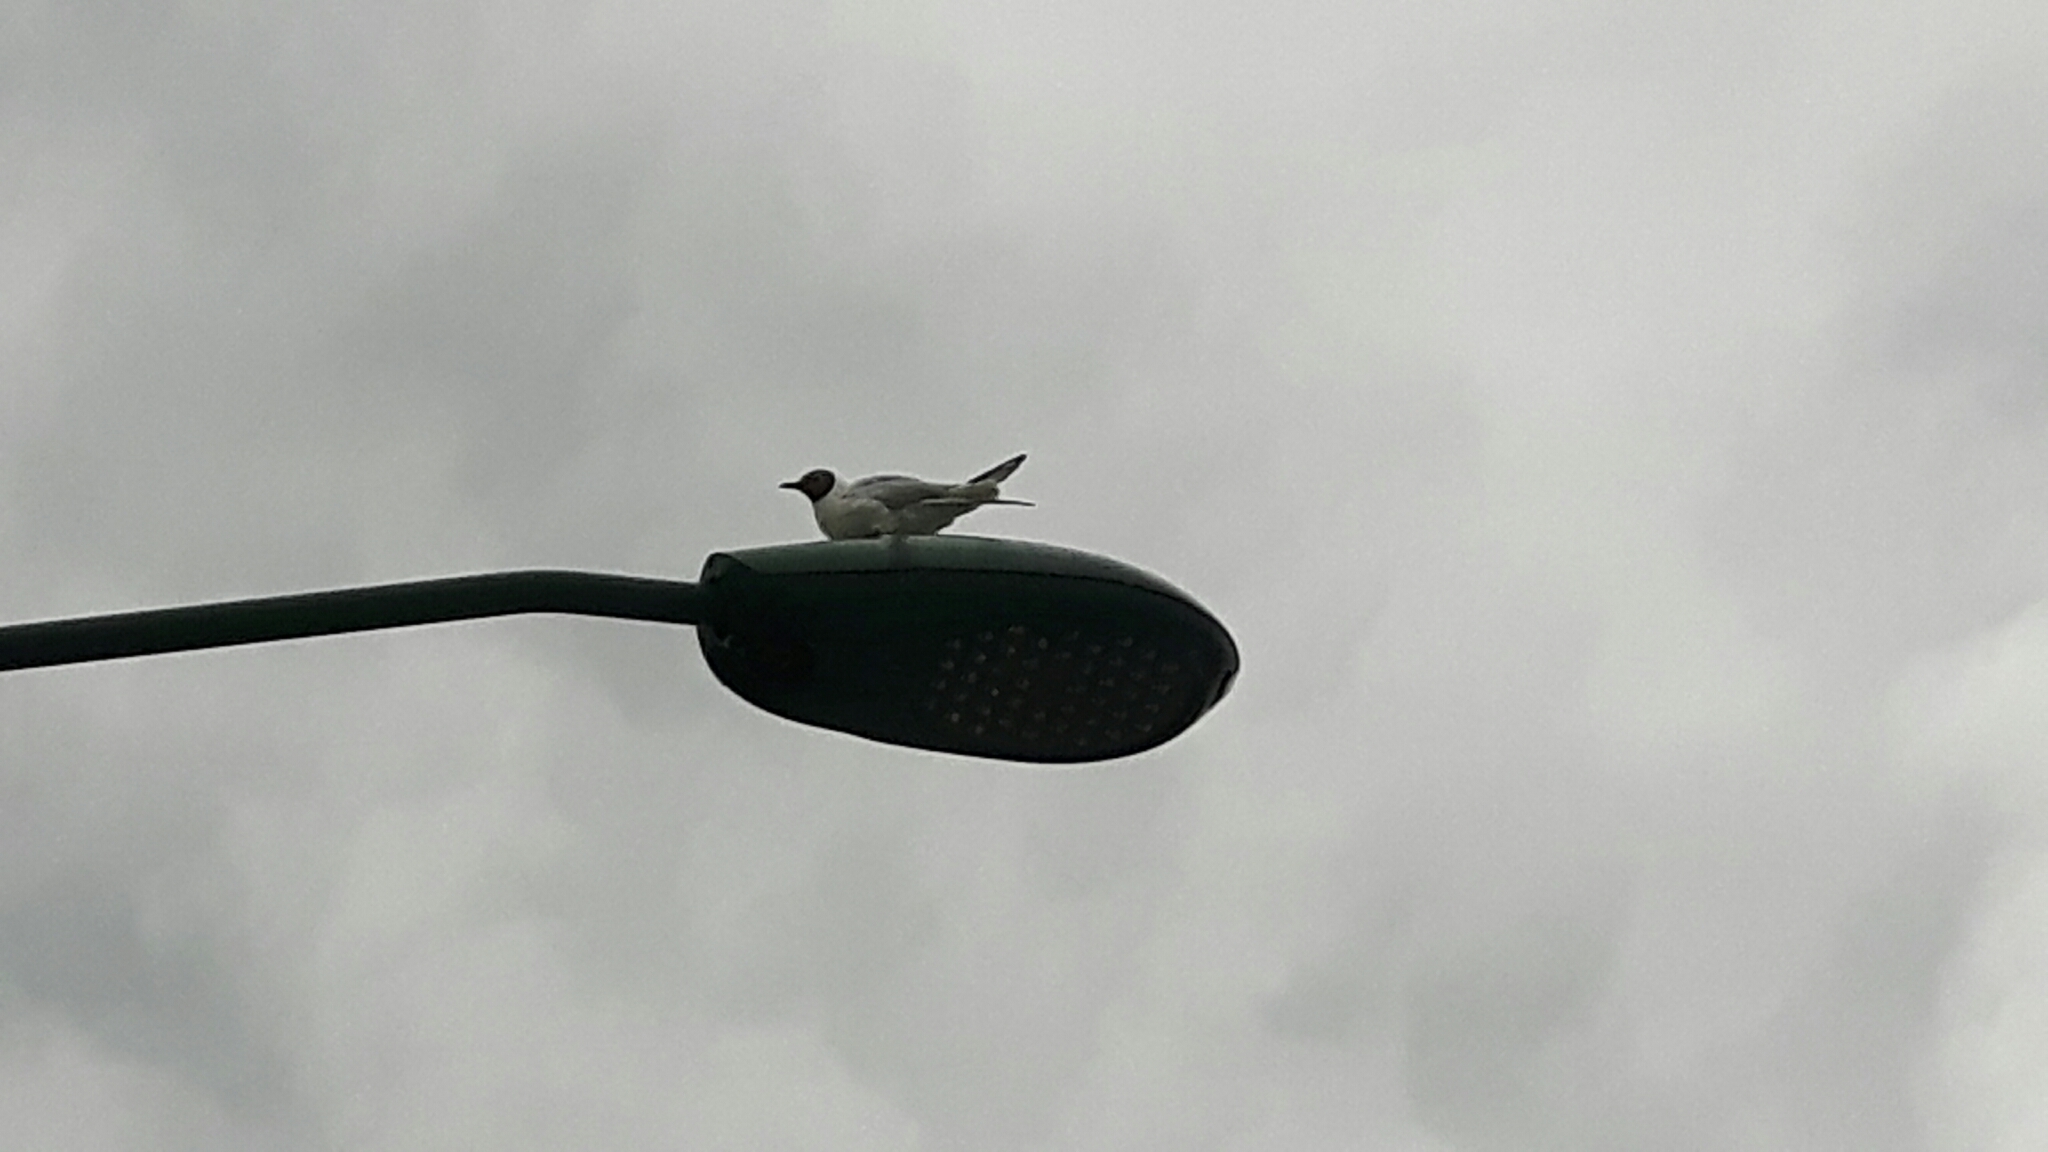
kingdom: Animalia
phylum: Chordata
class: Aves
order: Charadriiformes
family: Laridae
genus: Chroicocephalus
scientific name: Chroicocephalus ridibundus
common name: Black-headed gull
